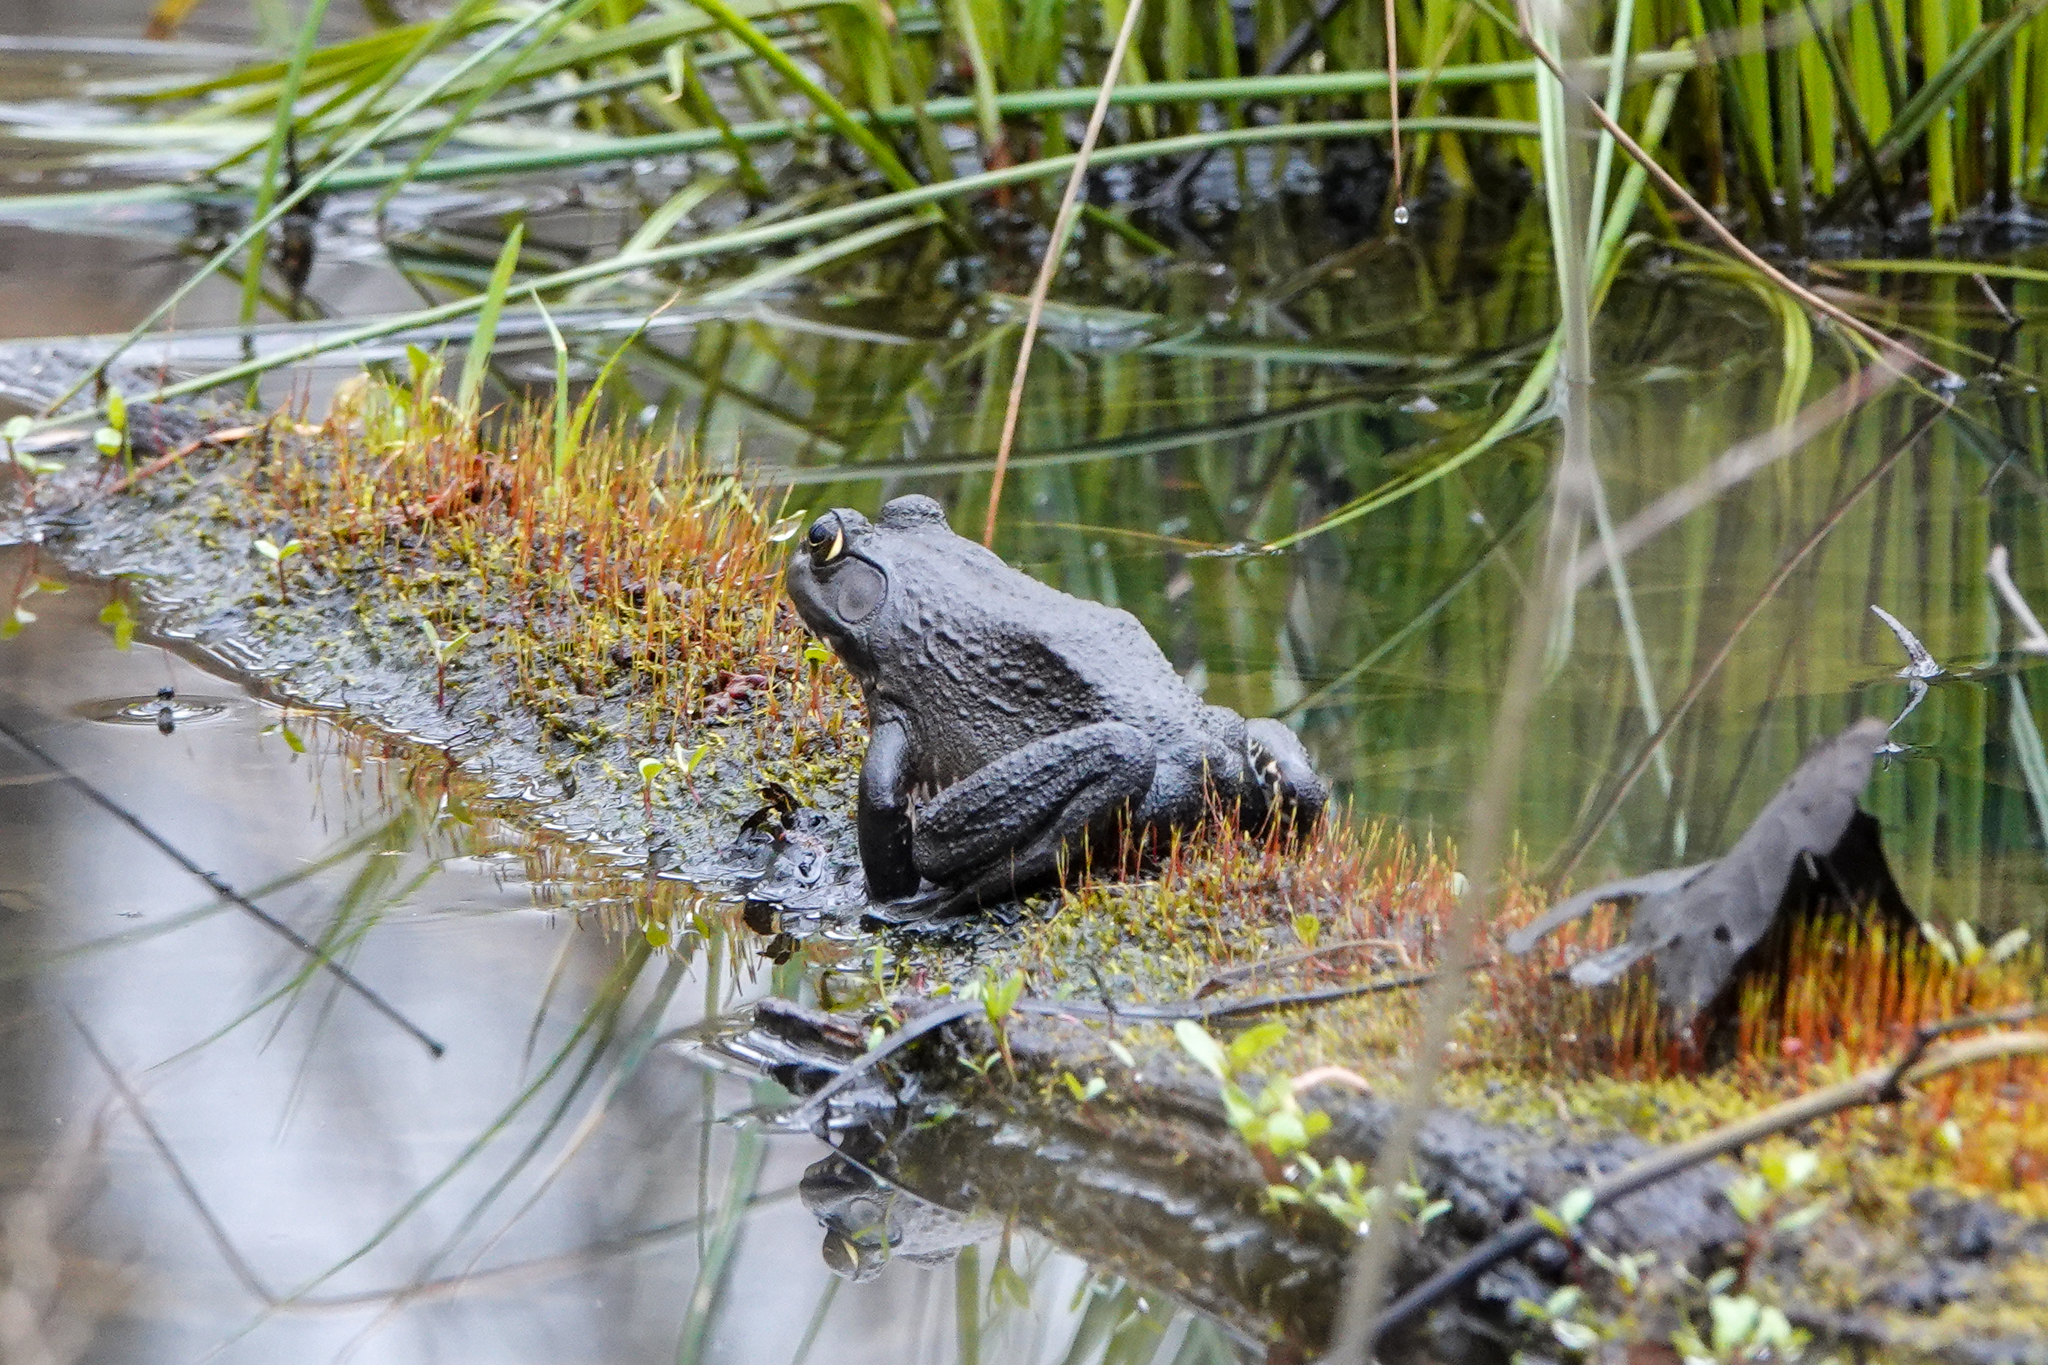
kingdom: Animalia
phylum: Chordata
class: Amphibia
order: Anura
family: Ranidae
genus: Lithobates
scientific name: Lithobates catesbeianus
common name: American bullfrog
